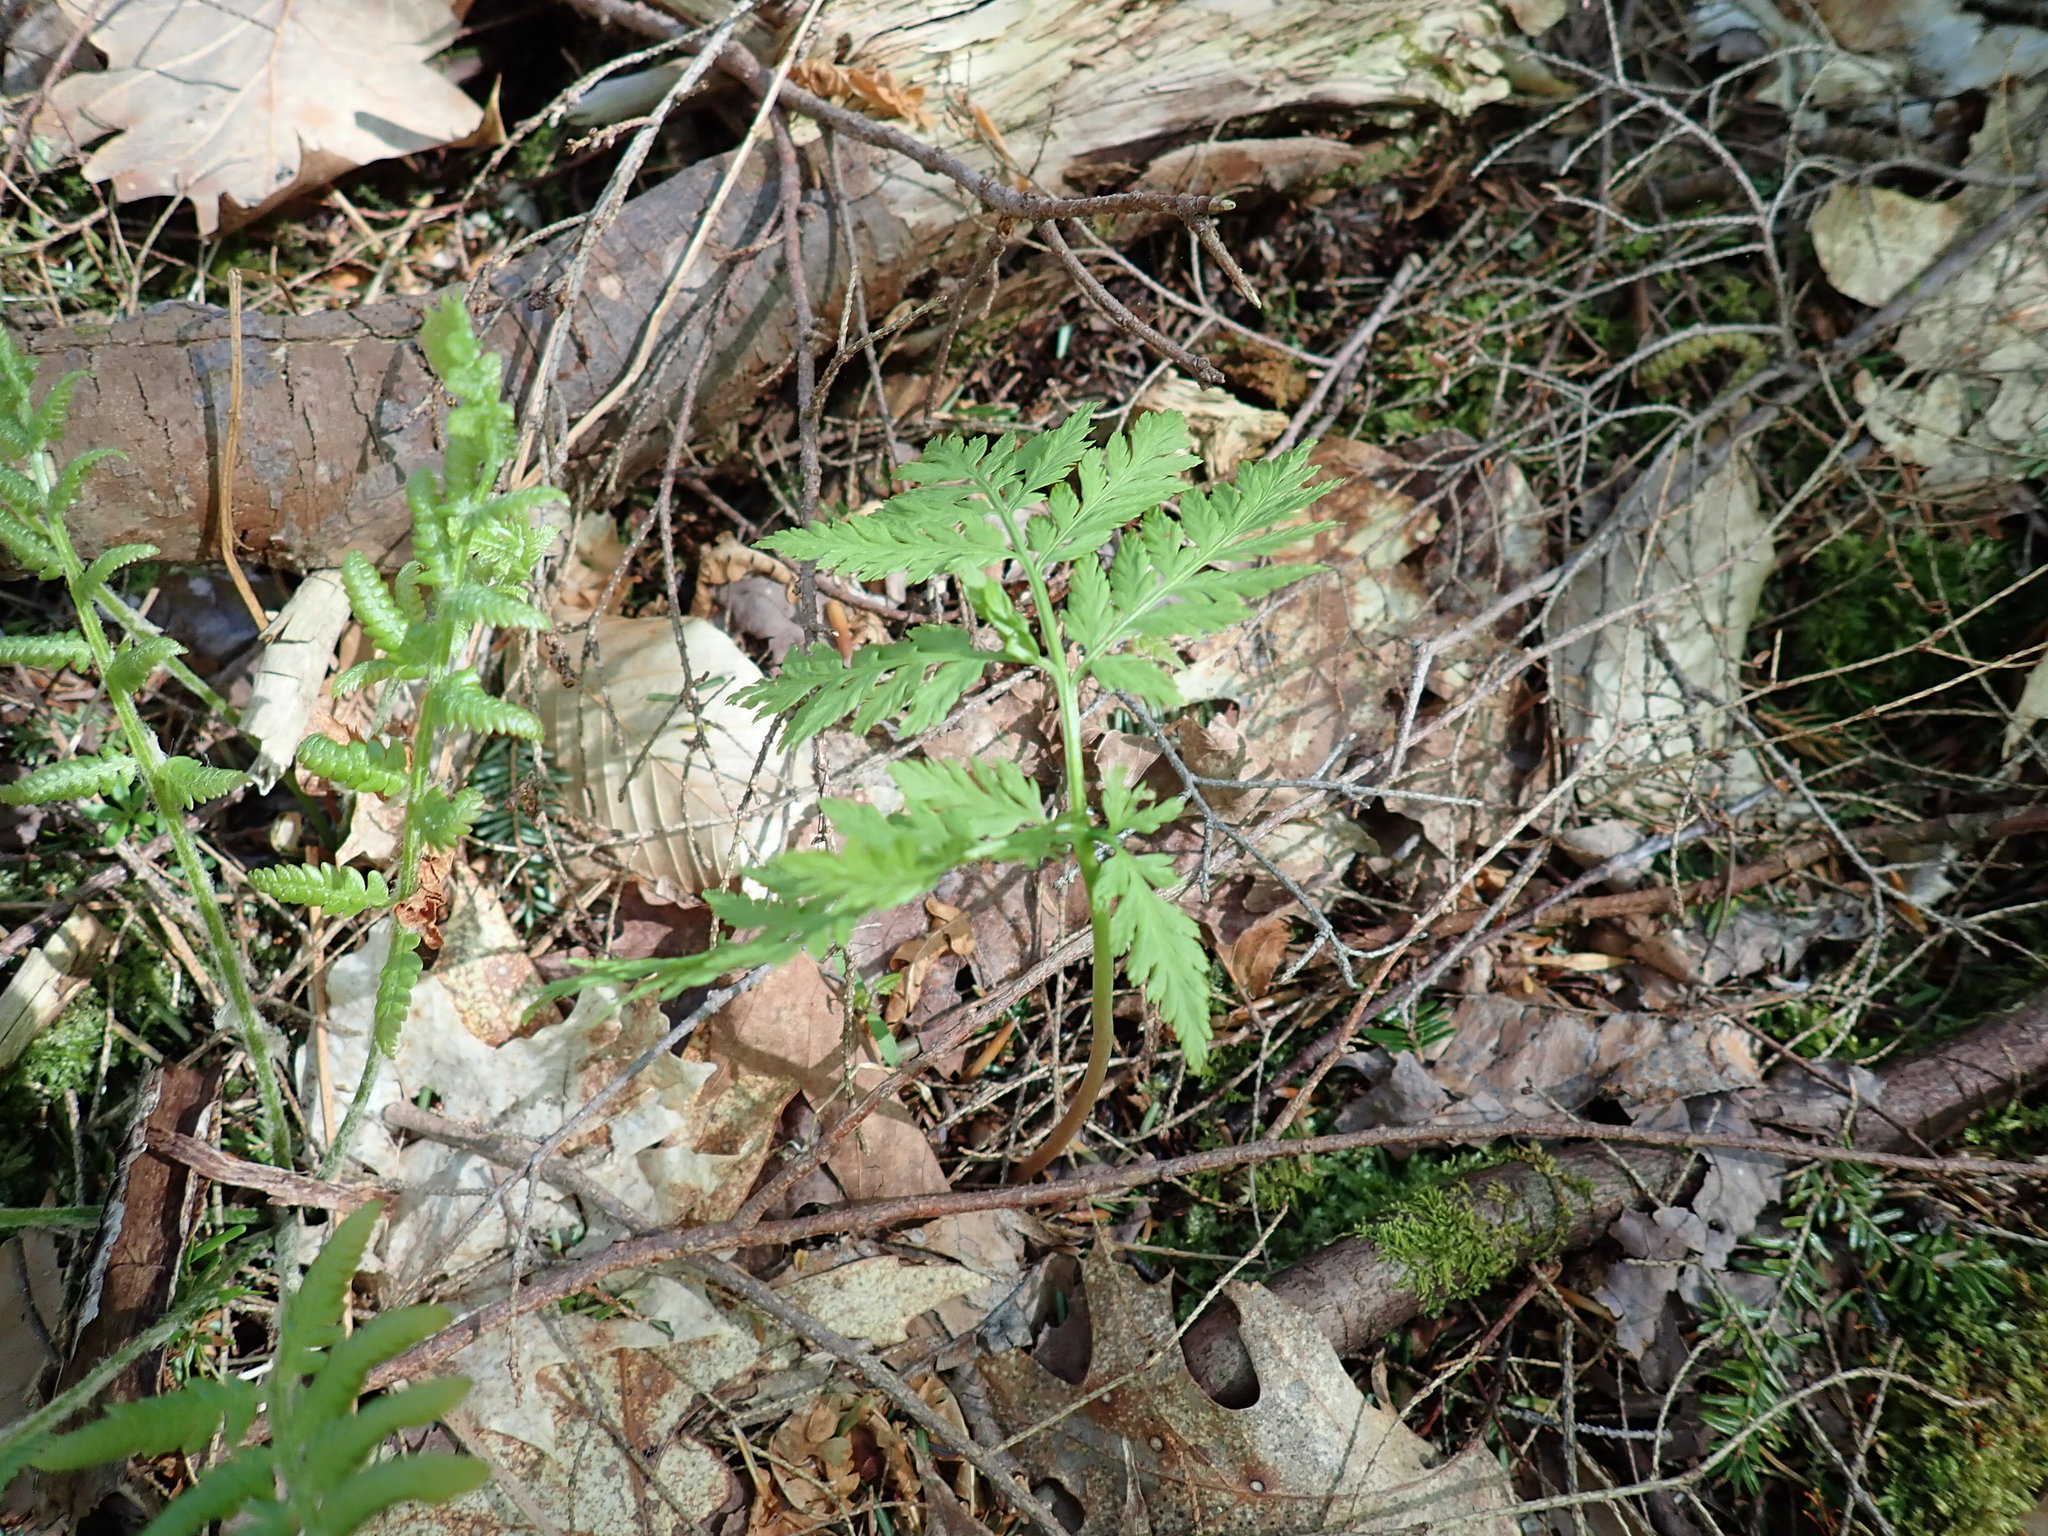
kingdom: Plantae
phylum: Tracheophyta
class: Polypodiopsida
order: Ophioglossales
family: Ophioglossaceae
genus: Botrypus
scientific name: Botrypus virginianus
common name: Common grapefern
